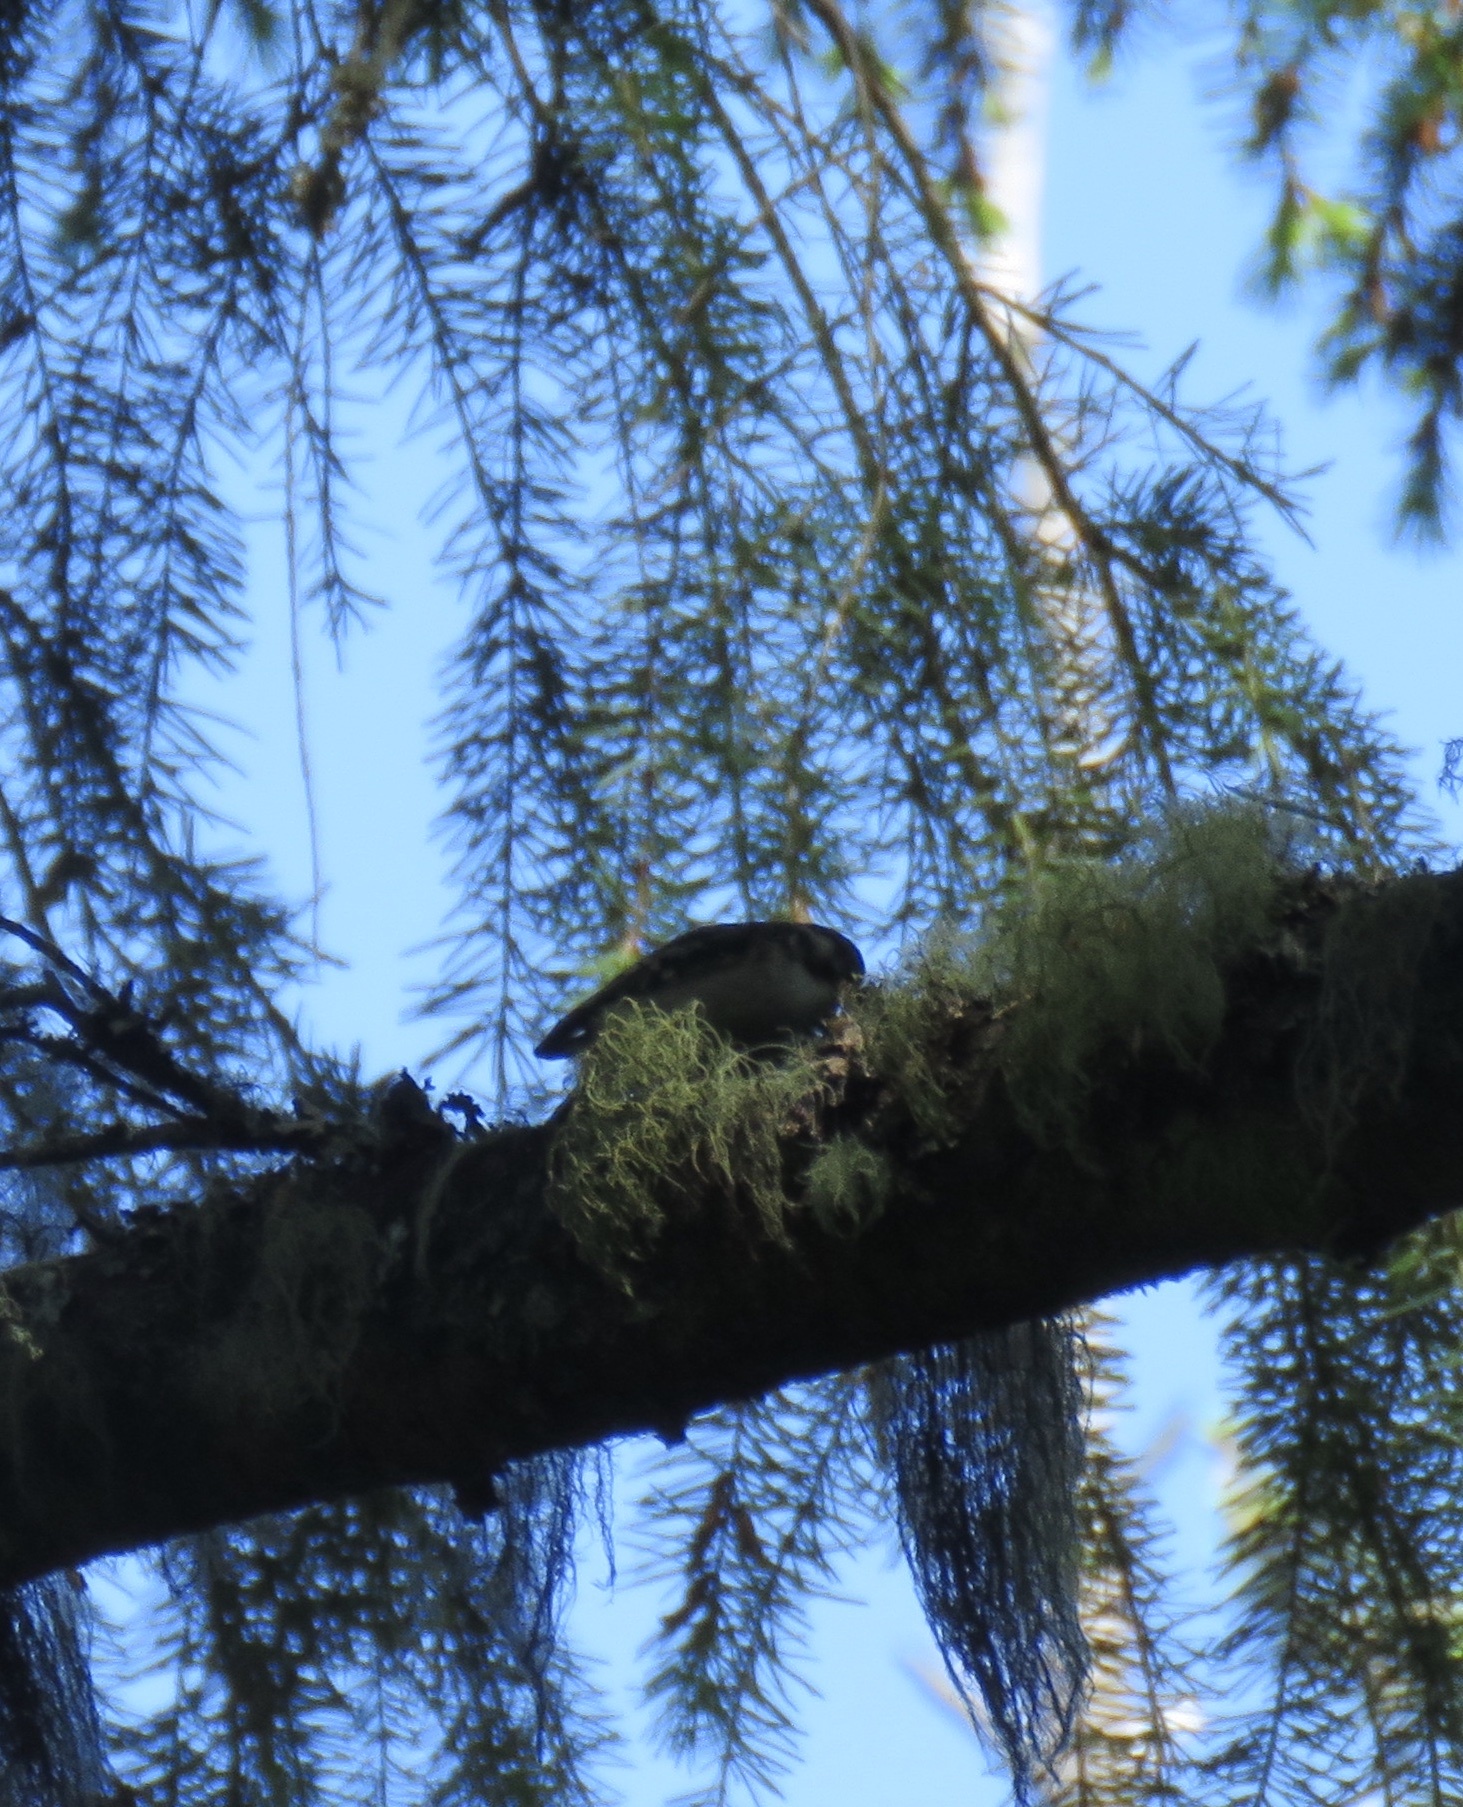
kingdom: Animalia
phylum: Chordata
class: Aves
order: Passeriformes
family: Certhiidae
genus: Certhia
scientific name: Certhia americana
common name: Brown creeper
